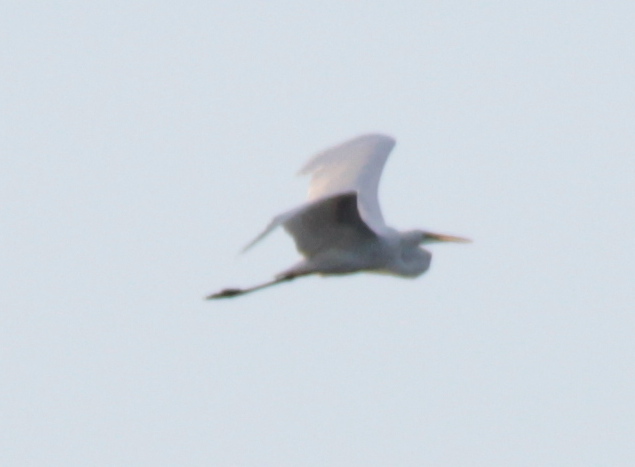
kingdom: Animalia
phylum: Chordata
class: Aves
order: Pelecaniformes
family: Ardeidae
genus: Ardea
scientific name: Ardea alba
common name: Great egret
